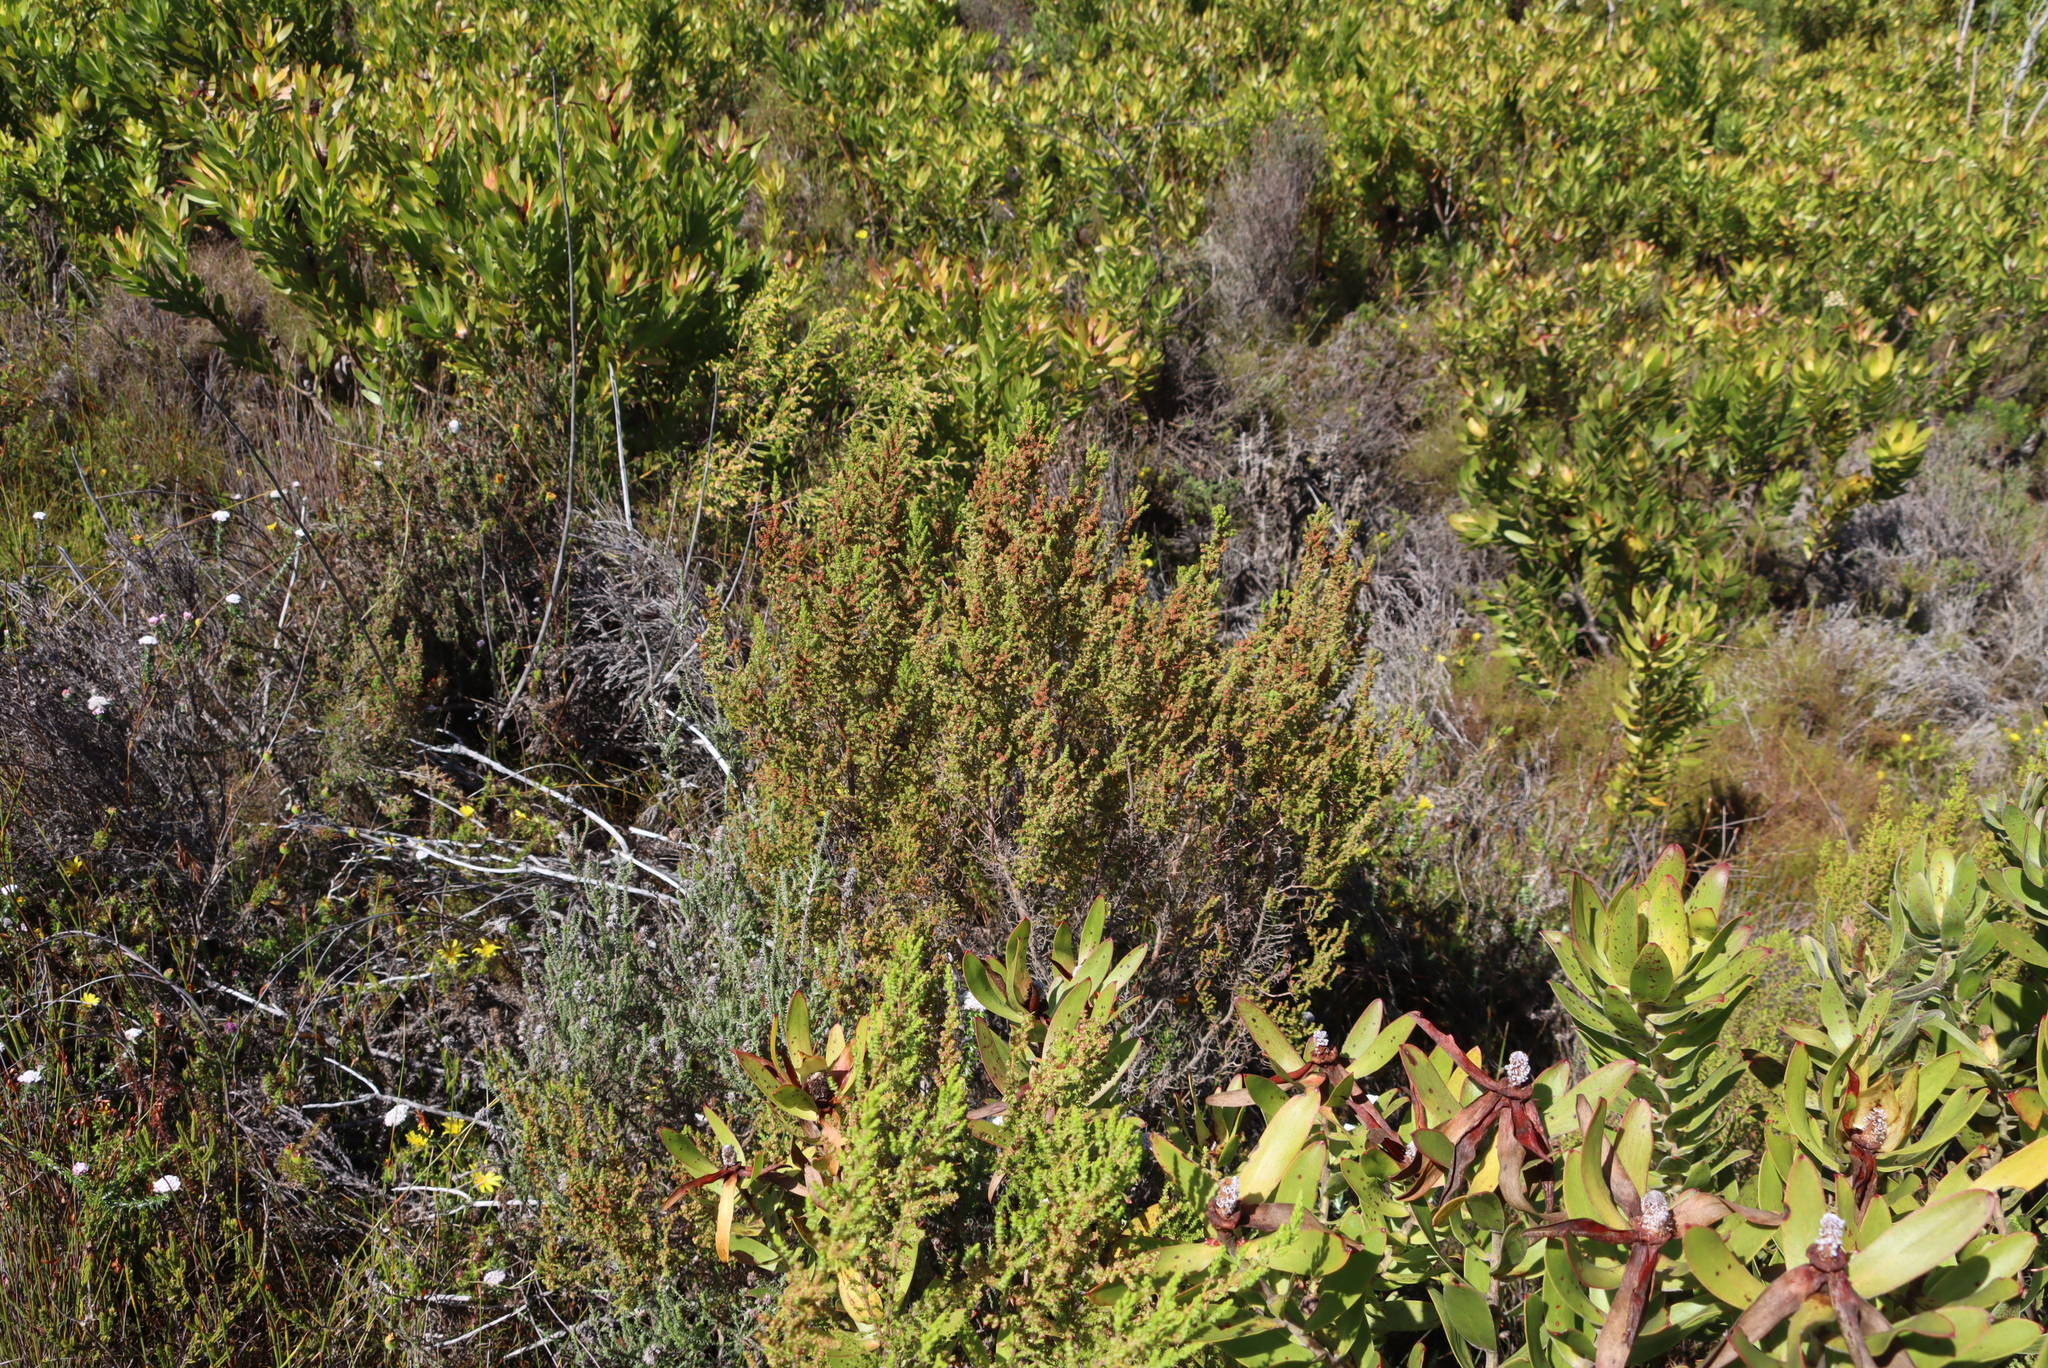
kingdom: Plantae
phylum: Tracheophyta
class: Magnoliopsida
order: Ericales
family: Ericaceae
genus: Erica
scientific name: Erica muscosa
